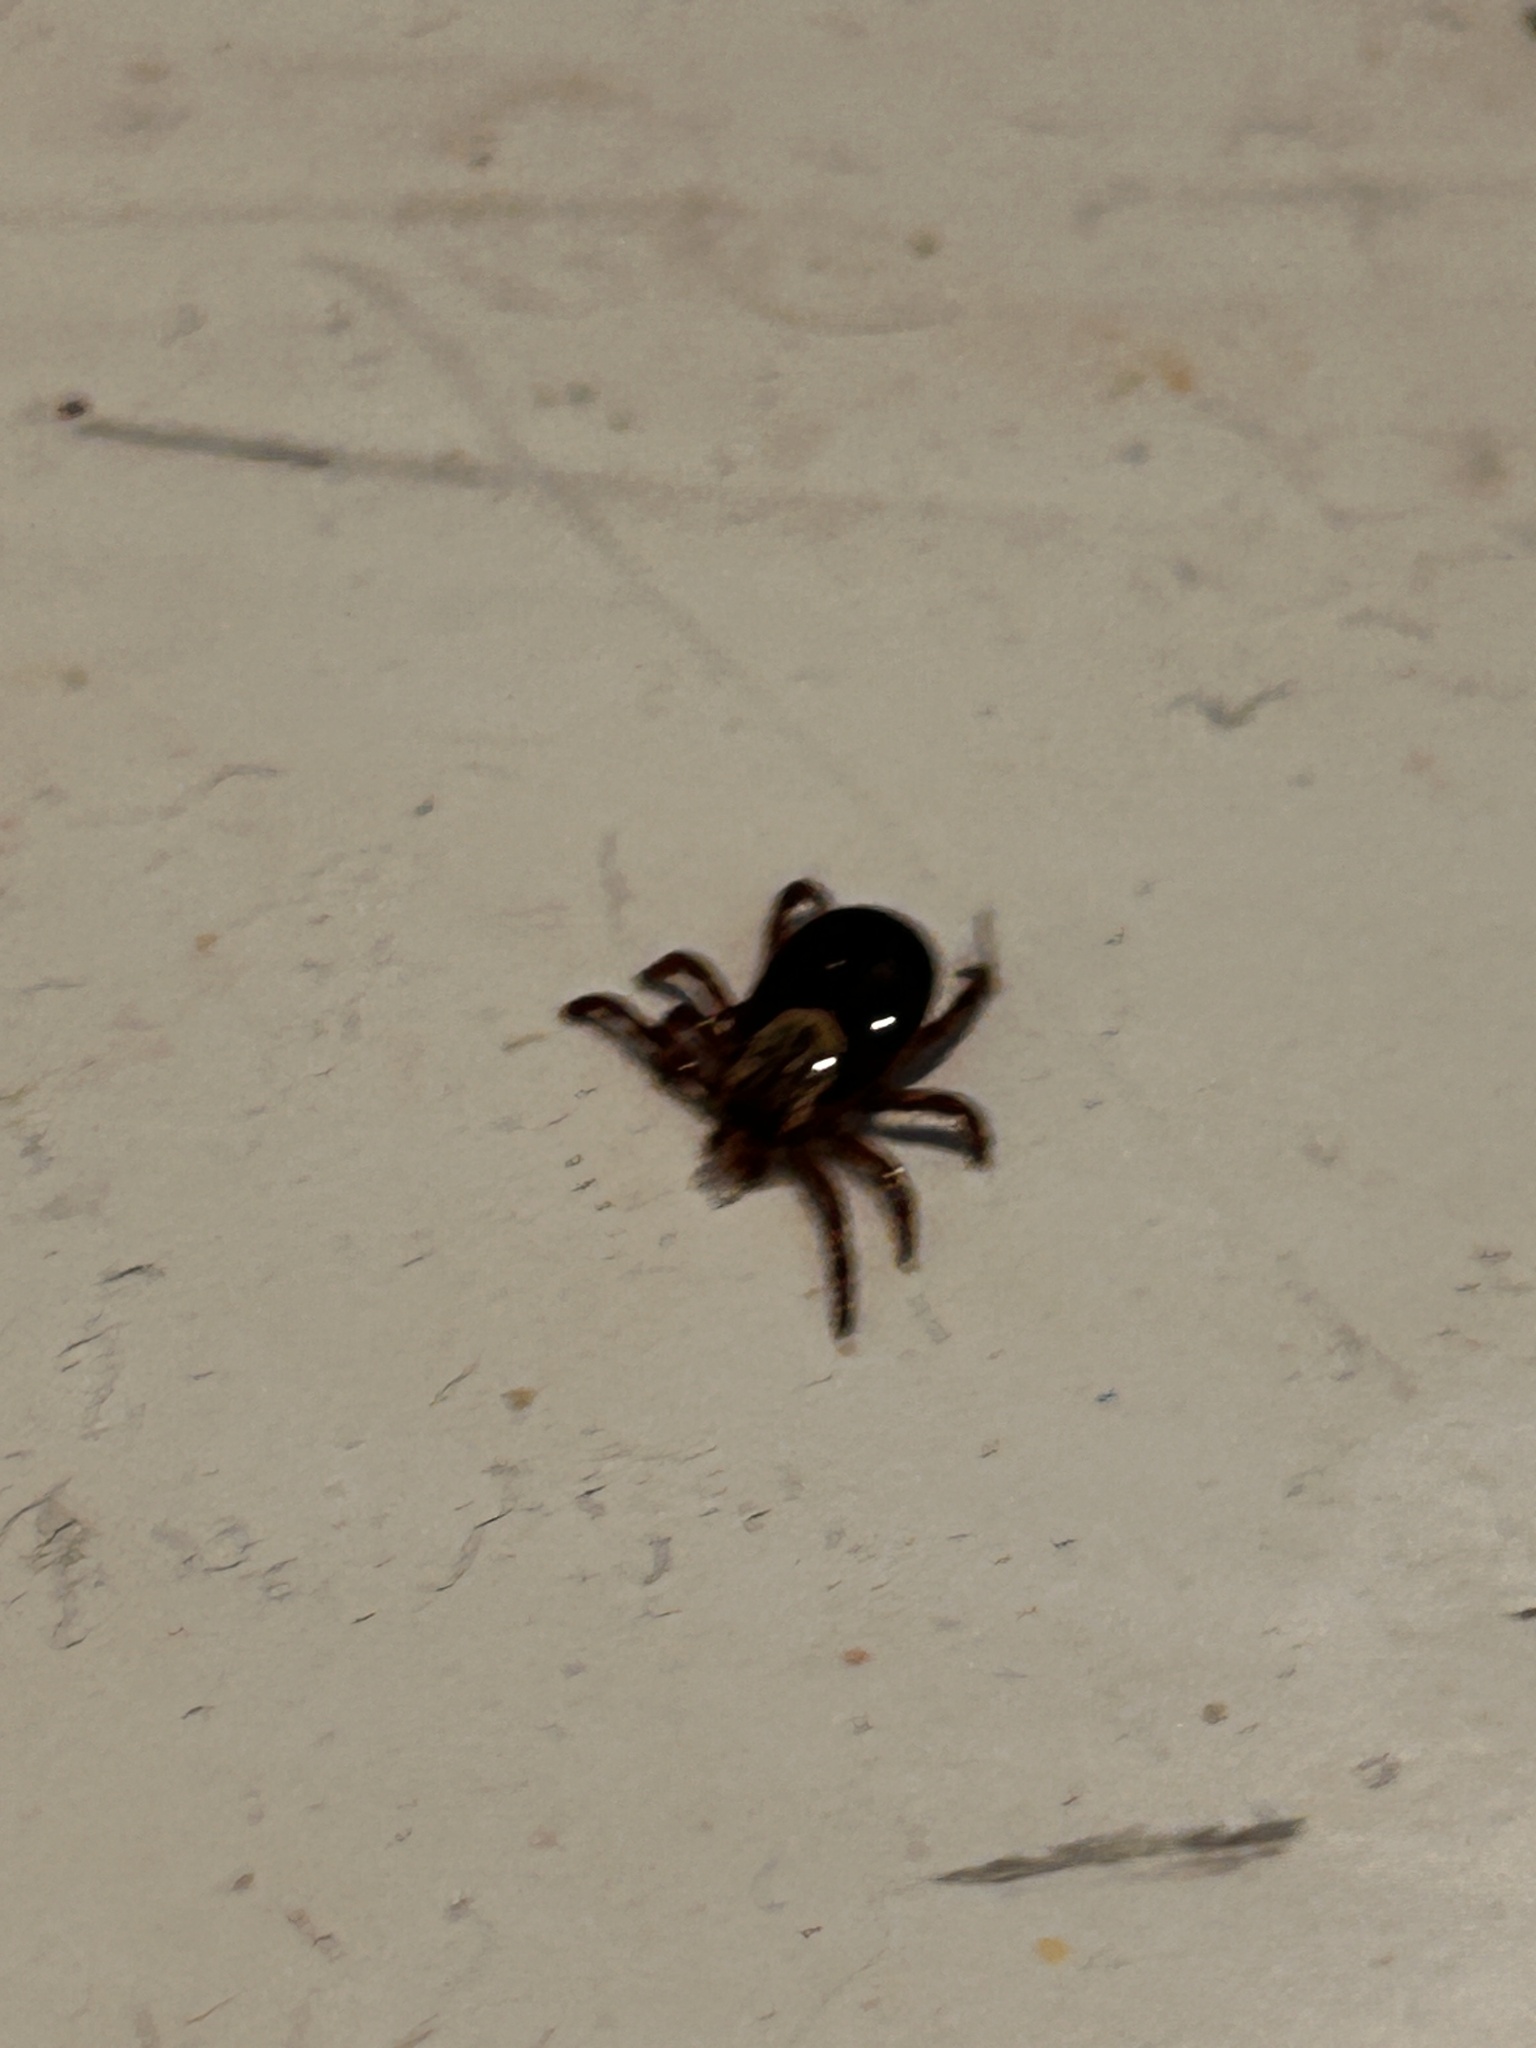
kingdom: Animalia
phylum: Arthropoda
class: Arachnida
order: Ixodida
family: Ixodidae
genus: Dermacentor
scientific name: Dermacentor variabilis
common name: American dog tick
